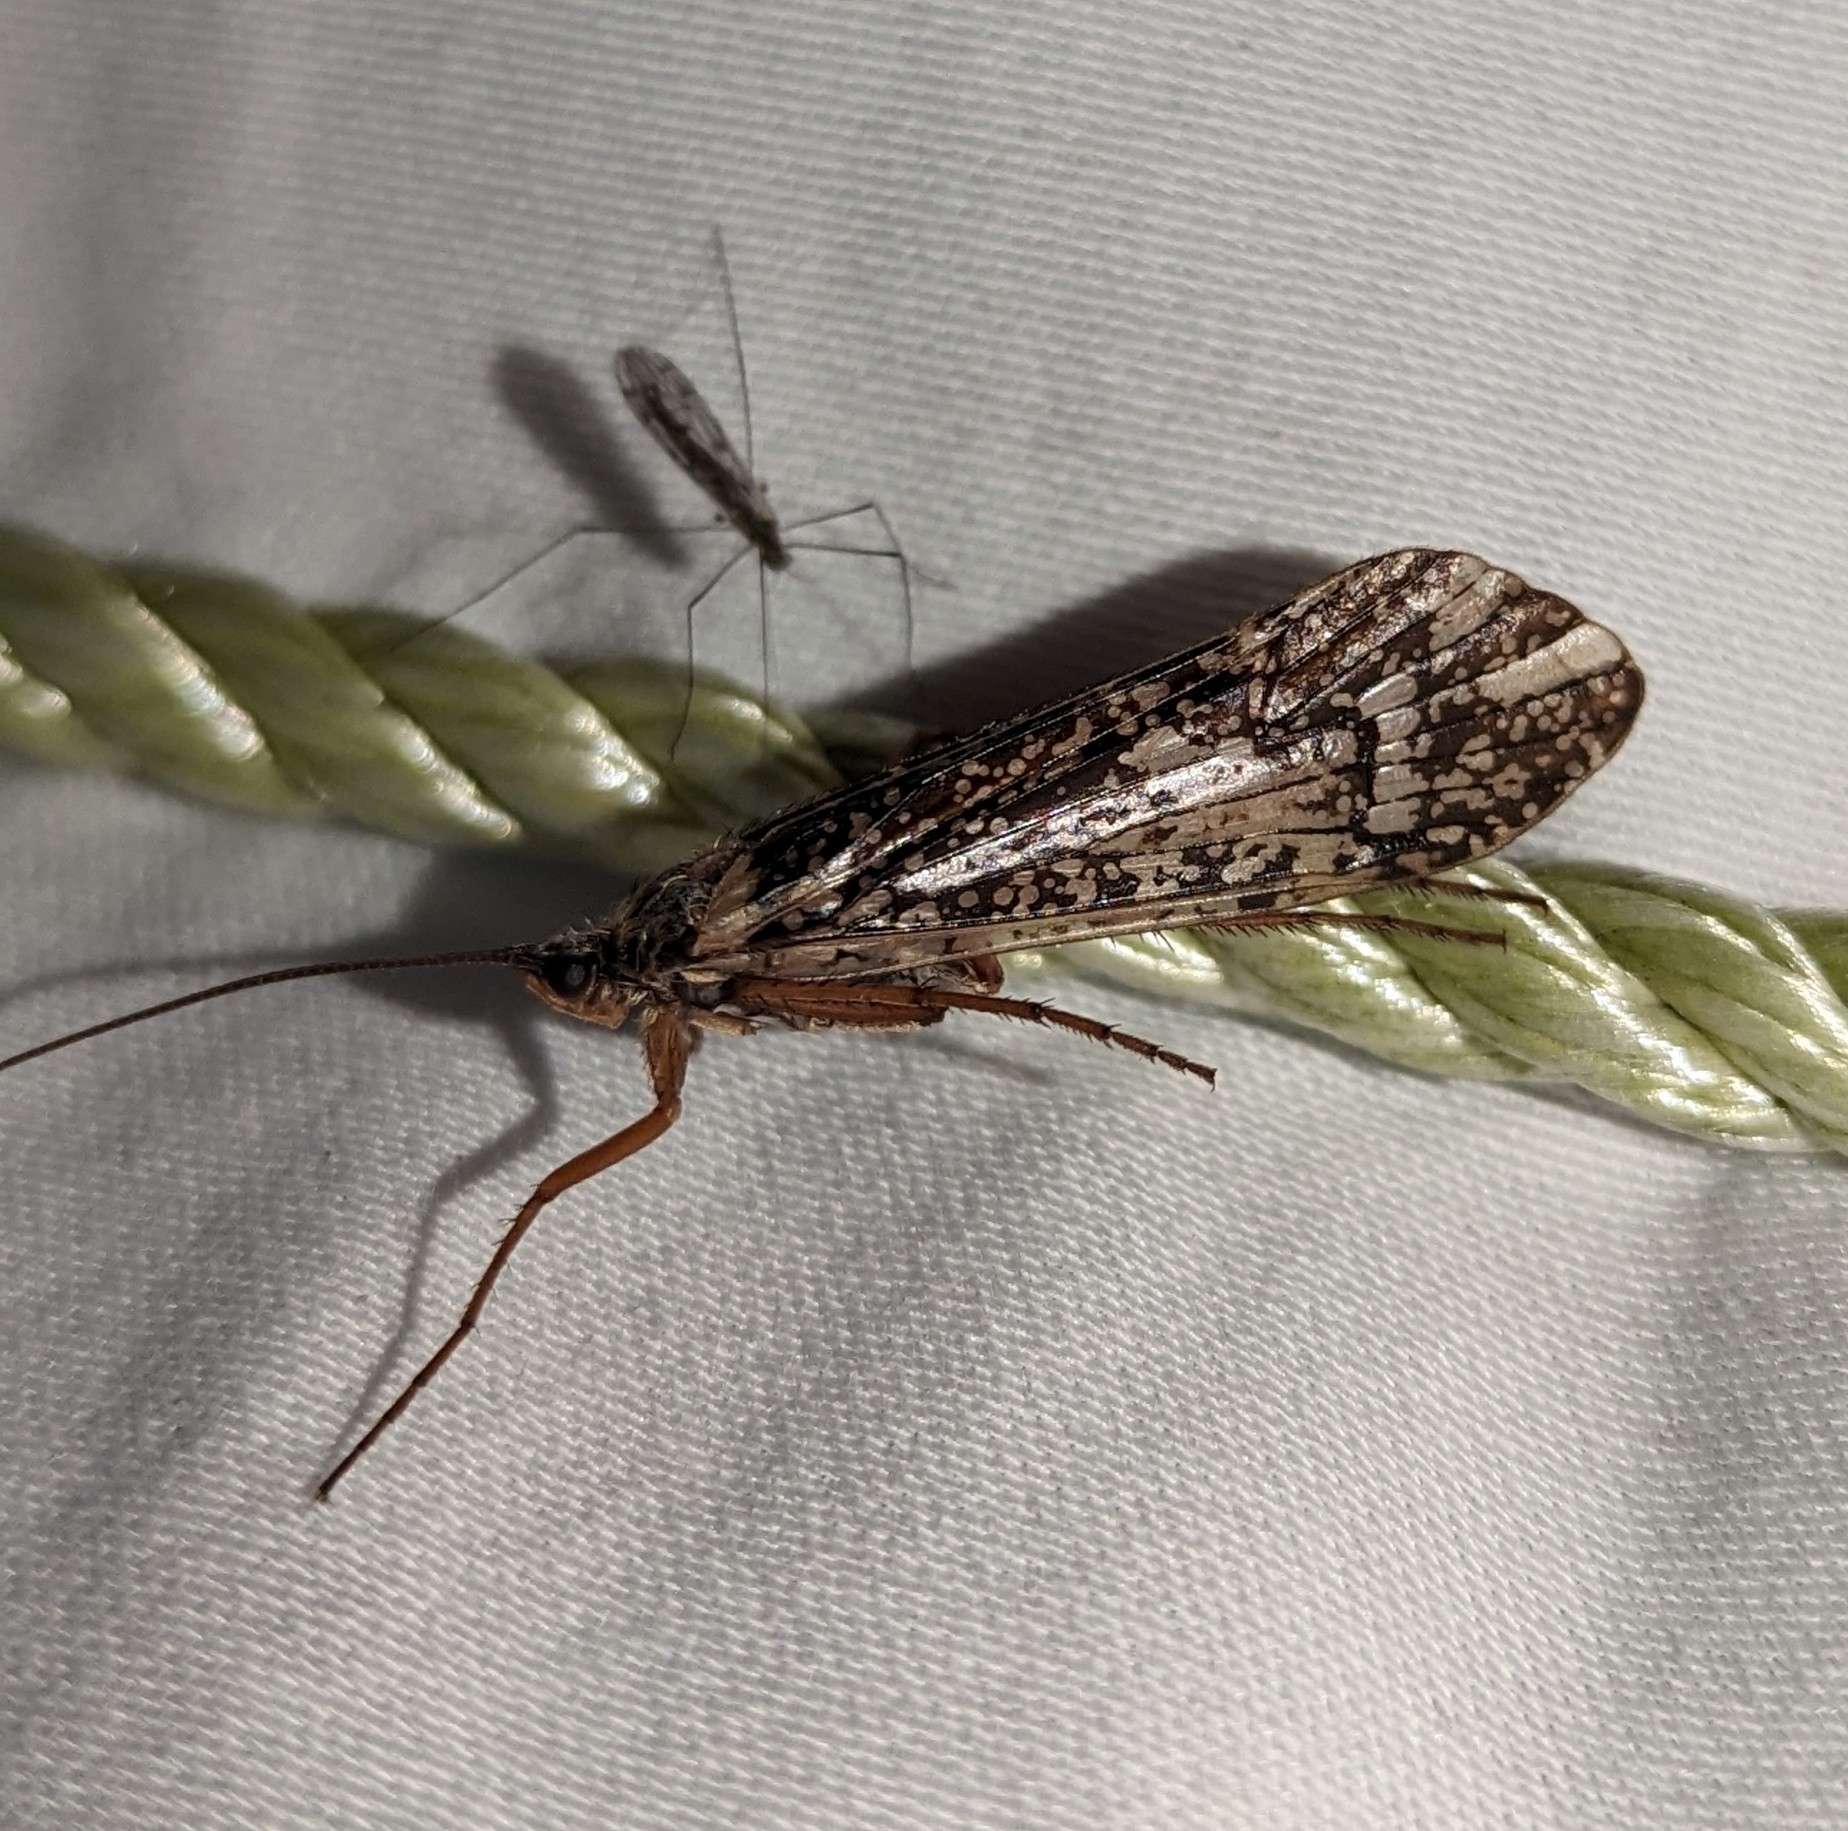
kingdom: Animalia
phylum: Arthropoda
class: Insecta
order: Trichoptera
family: Limnephilidae
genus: Clistoronia
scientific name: Clistoronia magnifica
